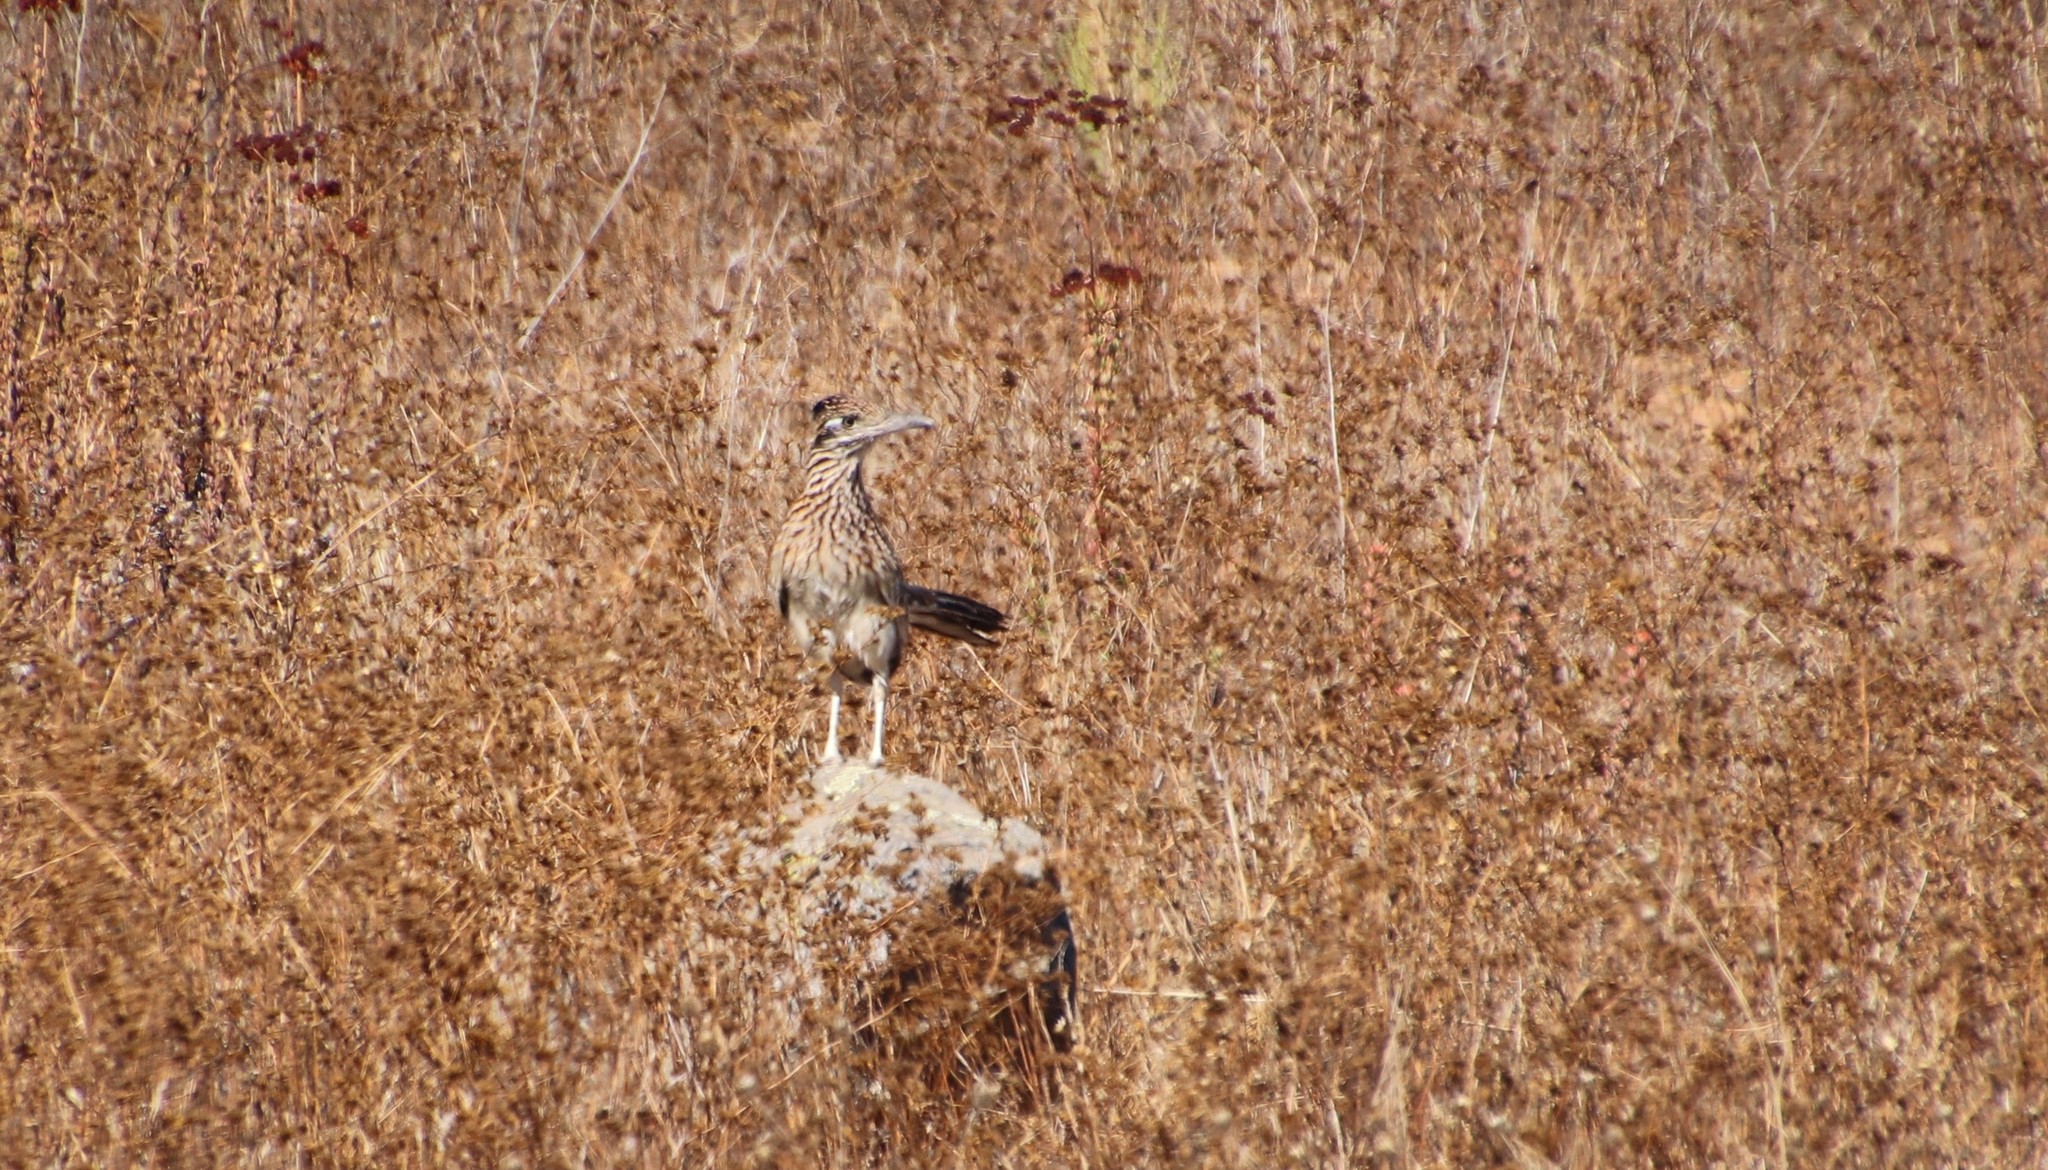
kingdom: Animalia
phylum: Chordata
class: Aves
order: Cuculiformes
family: Cuculidae
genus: Geococcyx
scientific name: Geococcyx californianus
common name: Greater roadrunner
